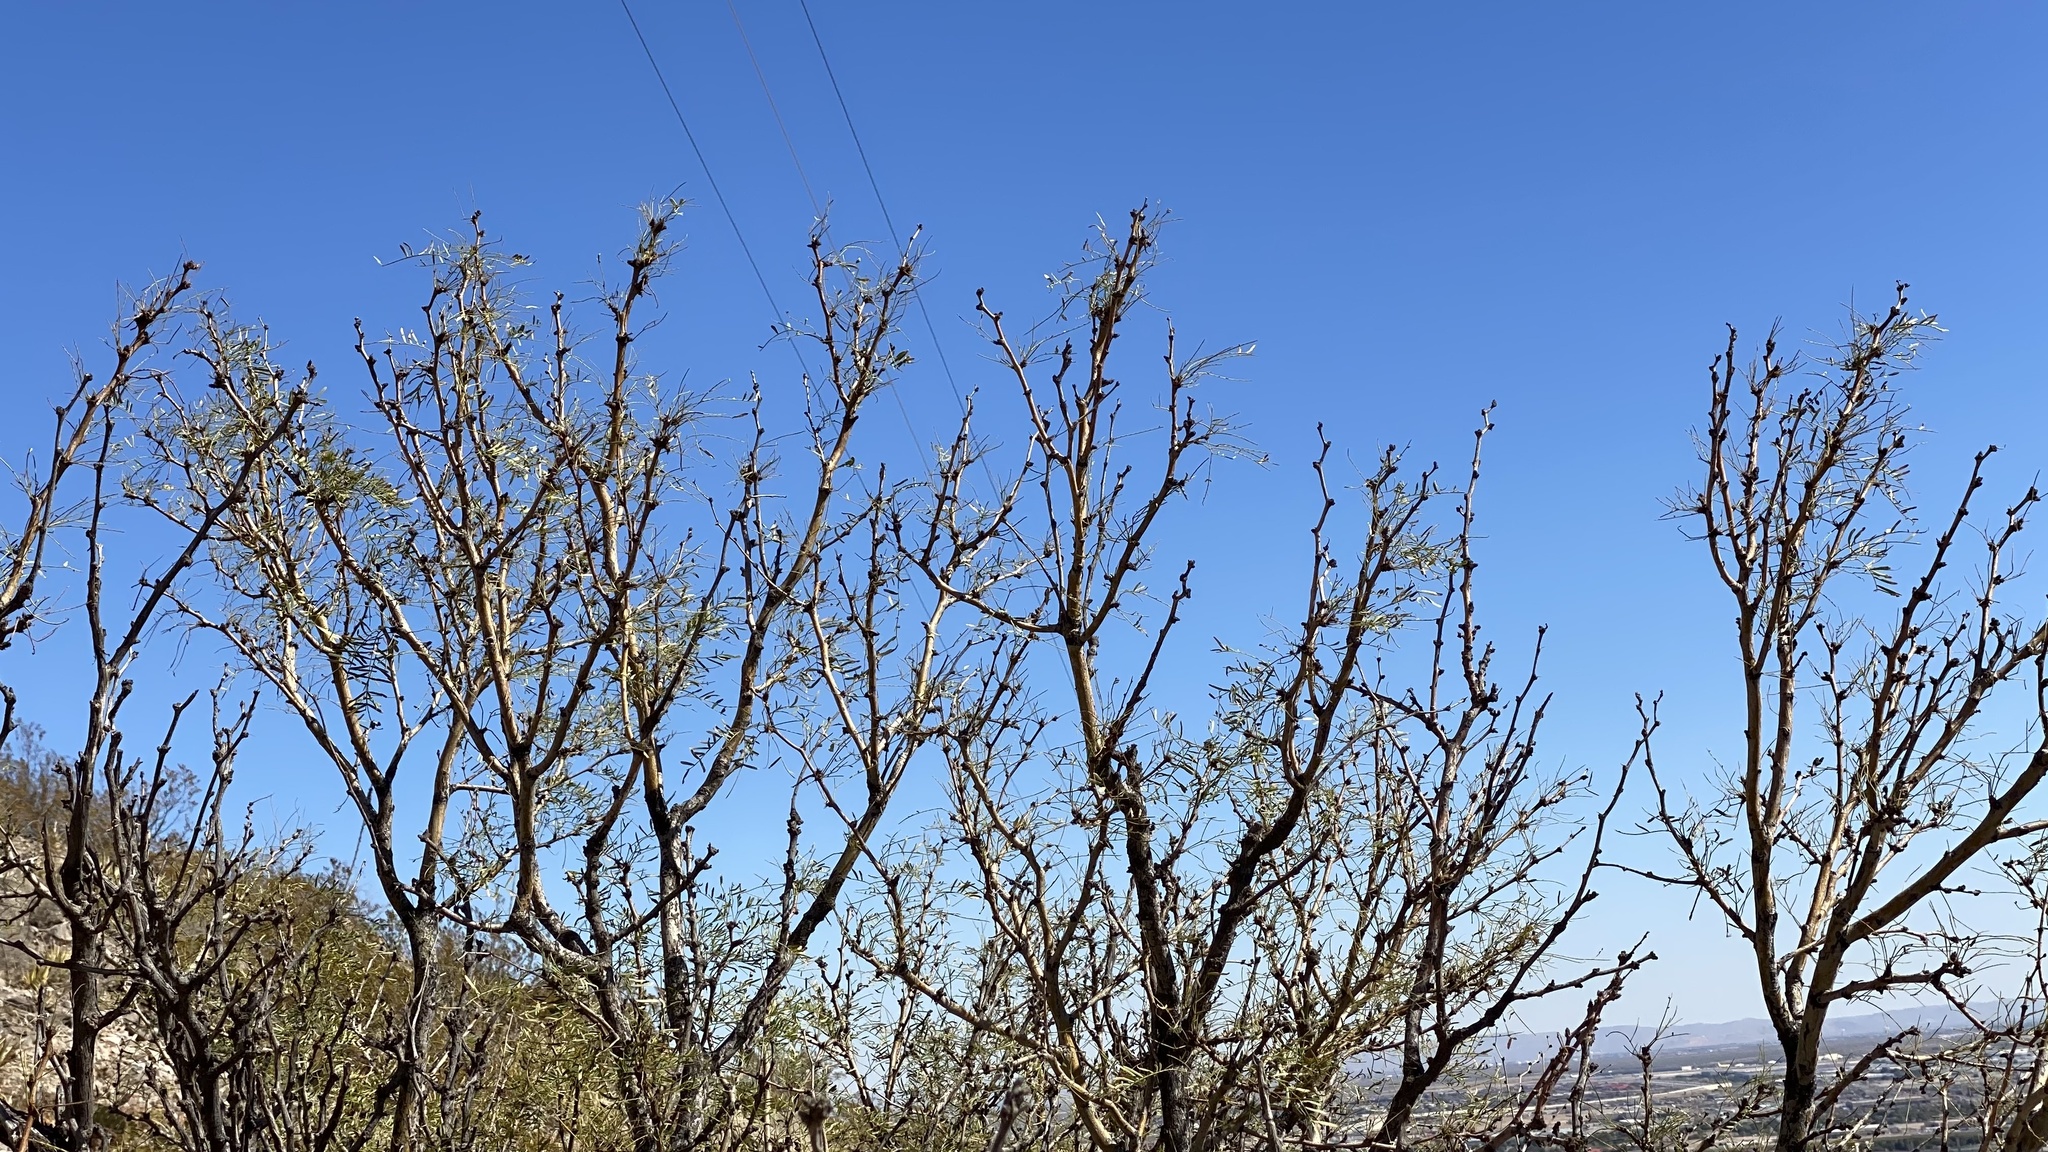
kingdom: Plantae
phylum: Tracheophyta
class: Magnoliopsida
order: Fabales
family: Fabaceae
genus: Prosopis
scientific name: Prosopis glandulosa
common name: Honey mesquite
